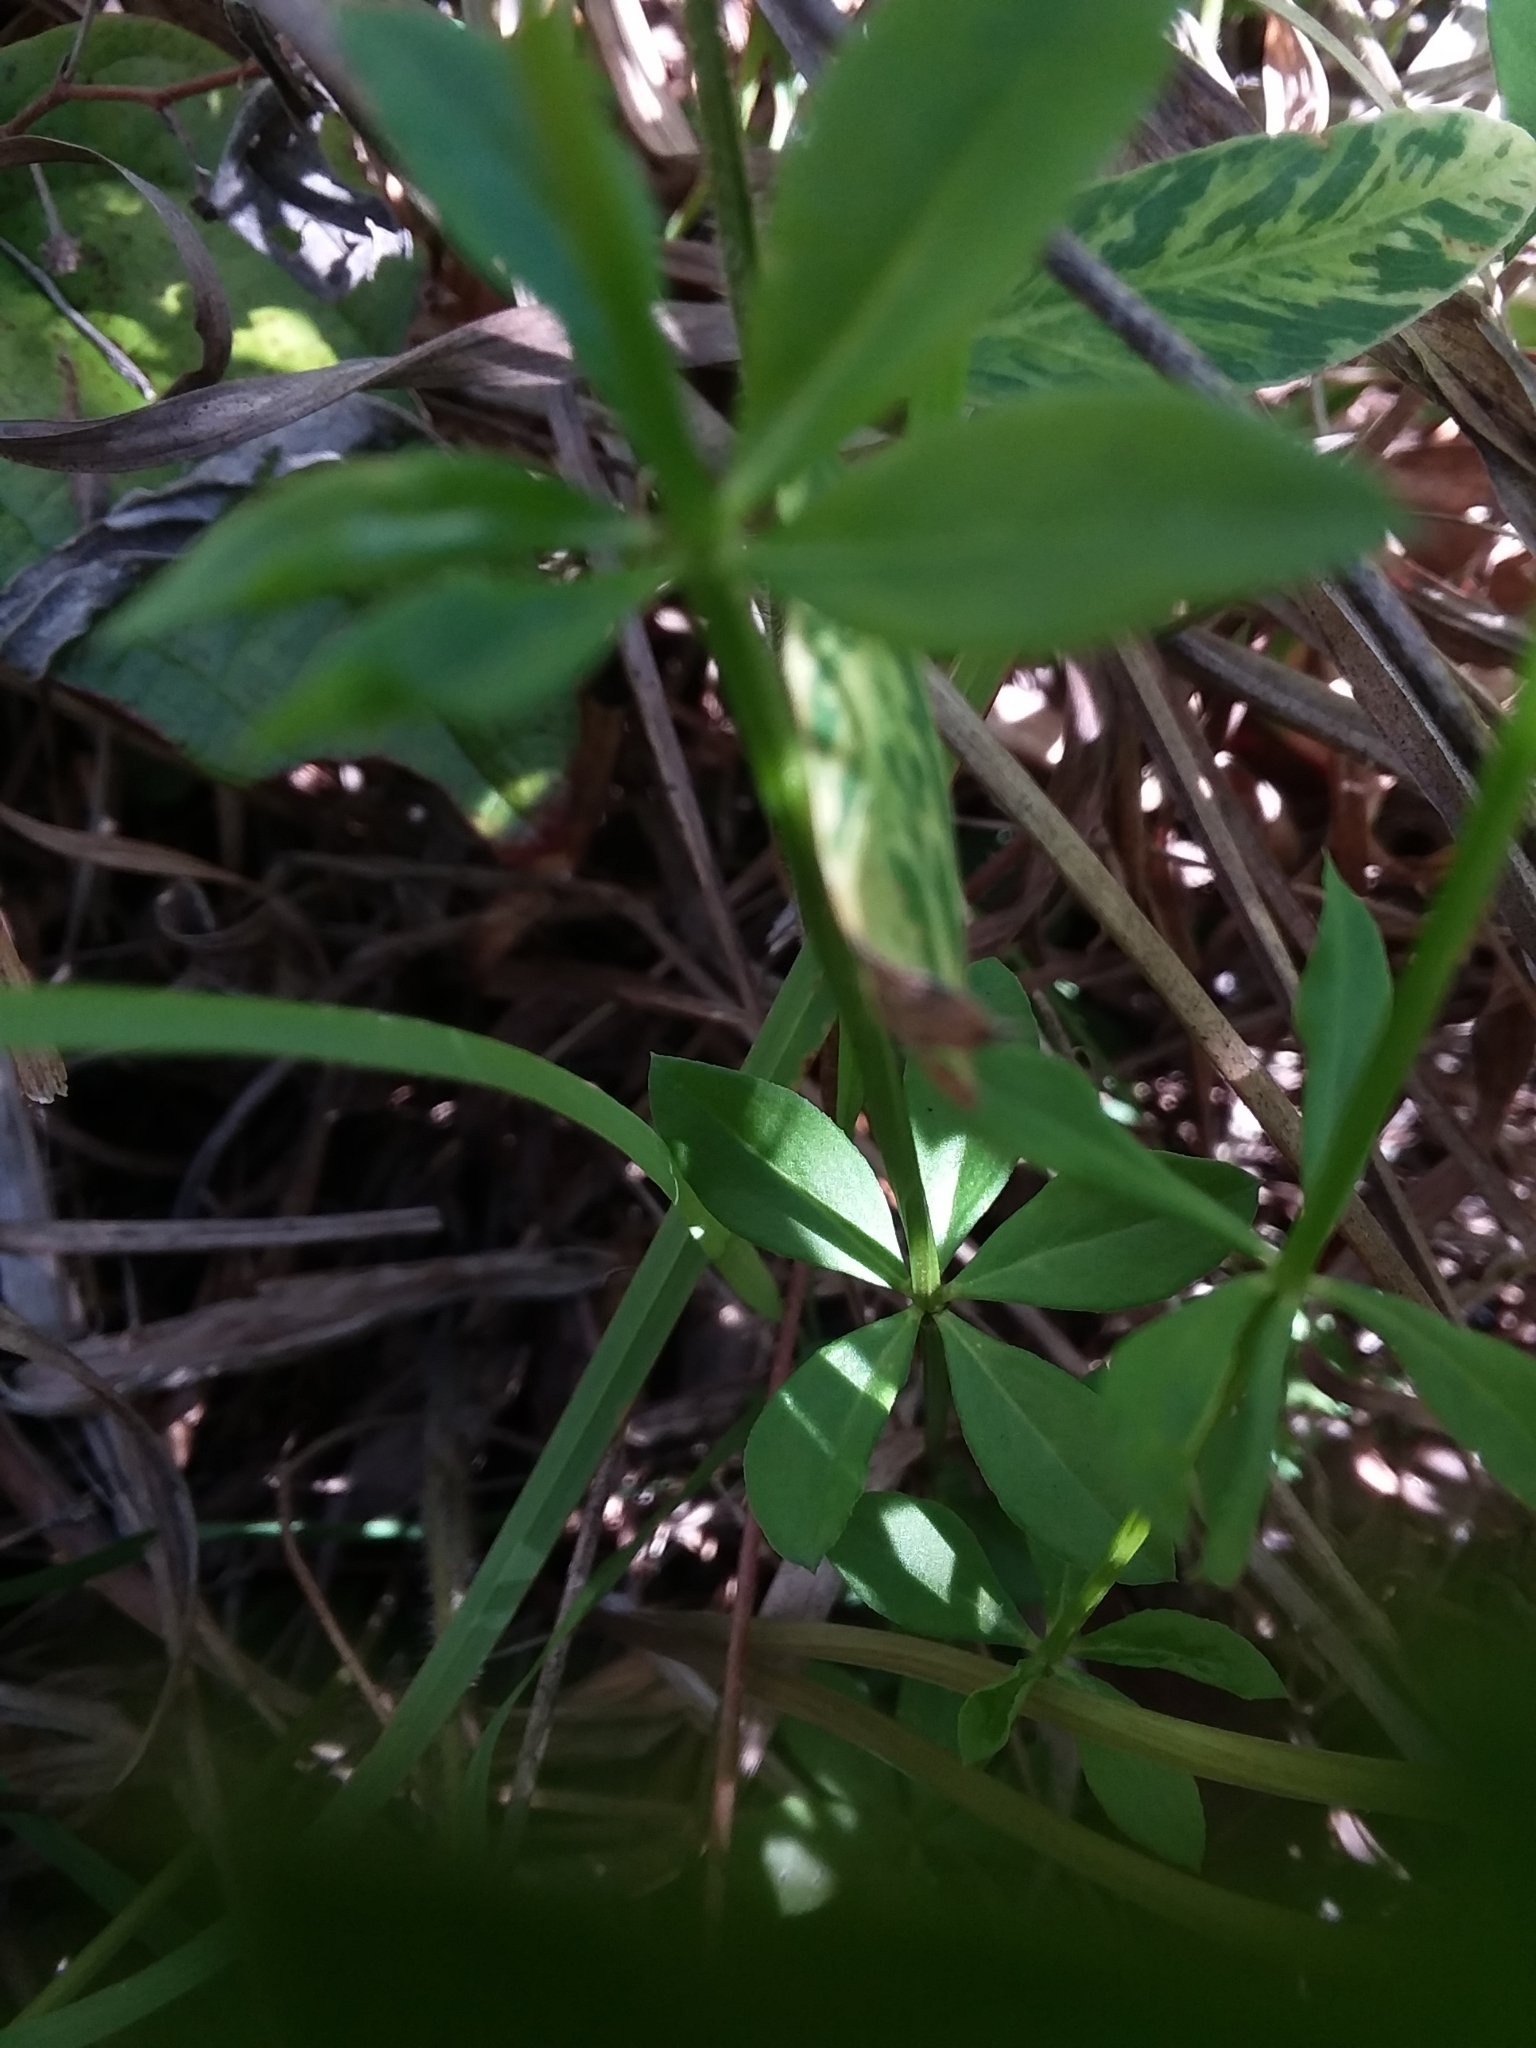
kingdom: Plantae
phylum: Tracheophyta
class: Magnoliopsida
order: Fabales
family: Polygalaceae
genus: Polygala
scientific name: Polygala boykinii
